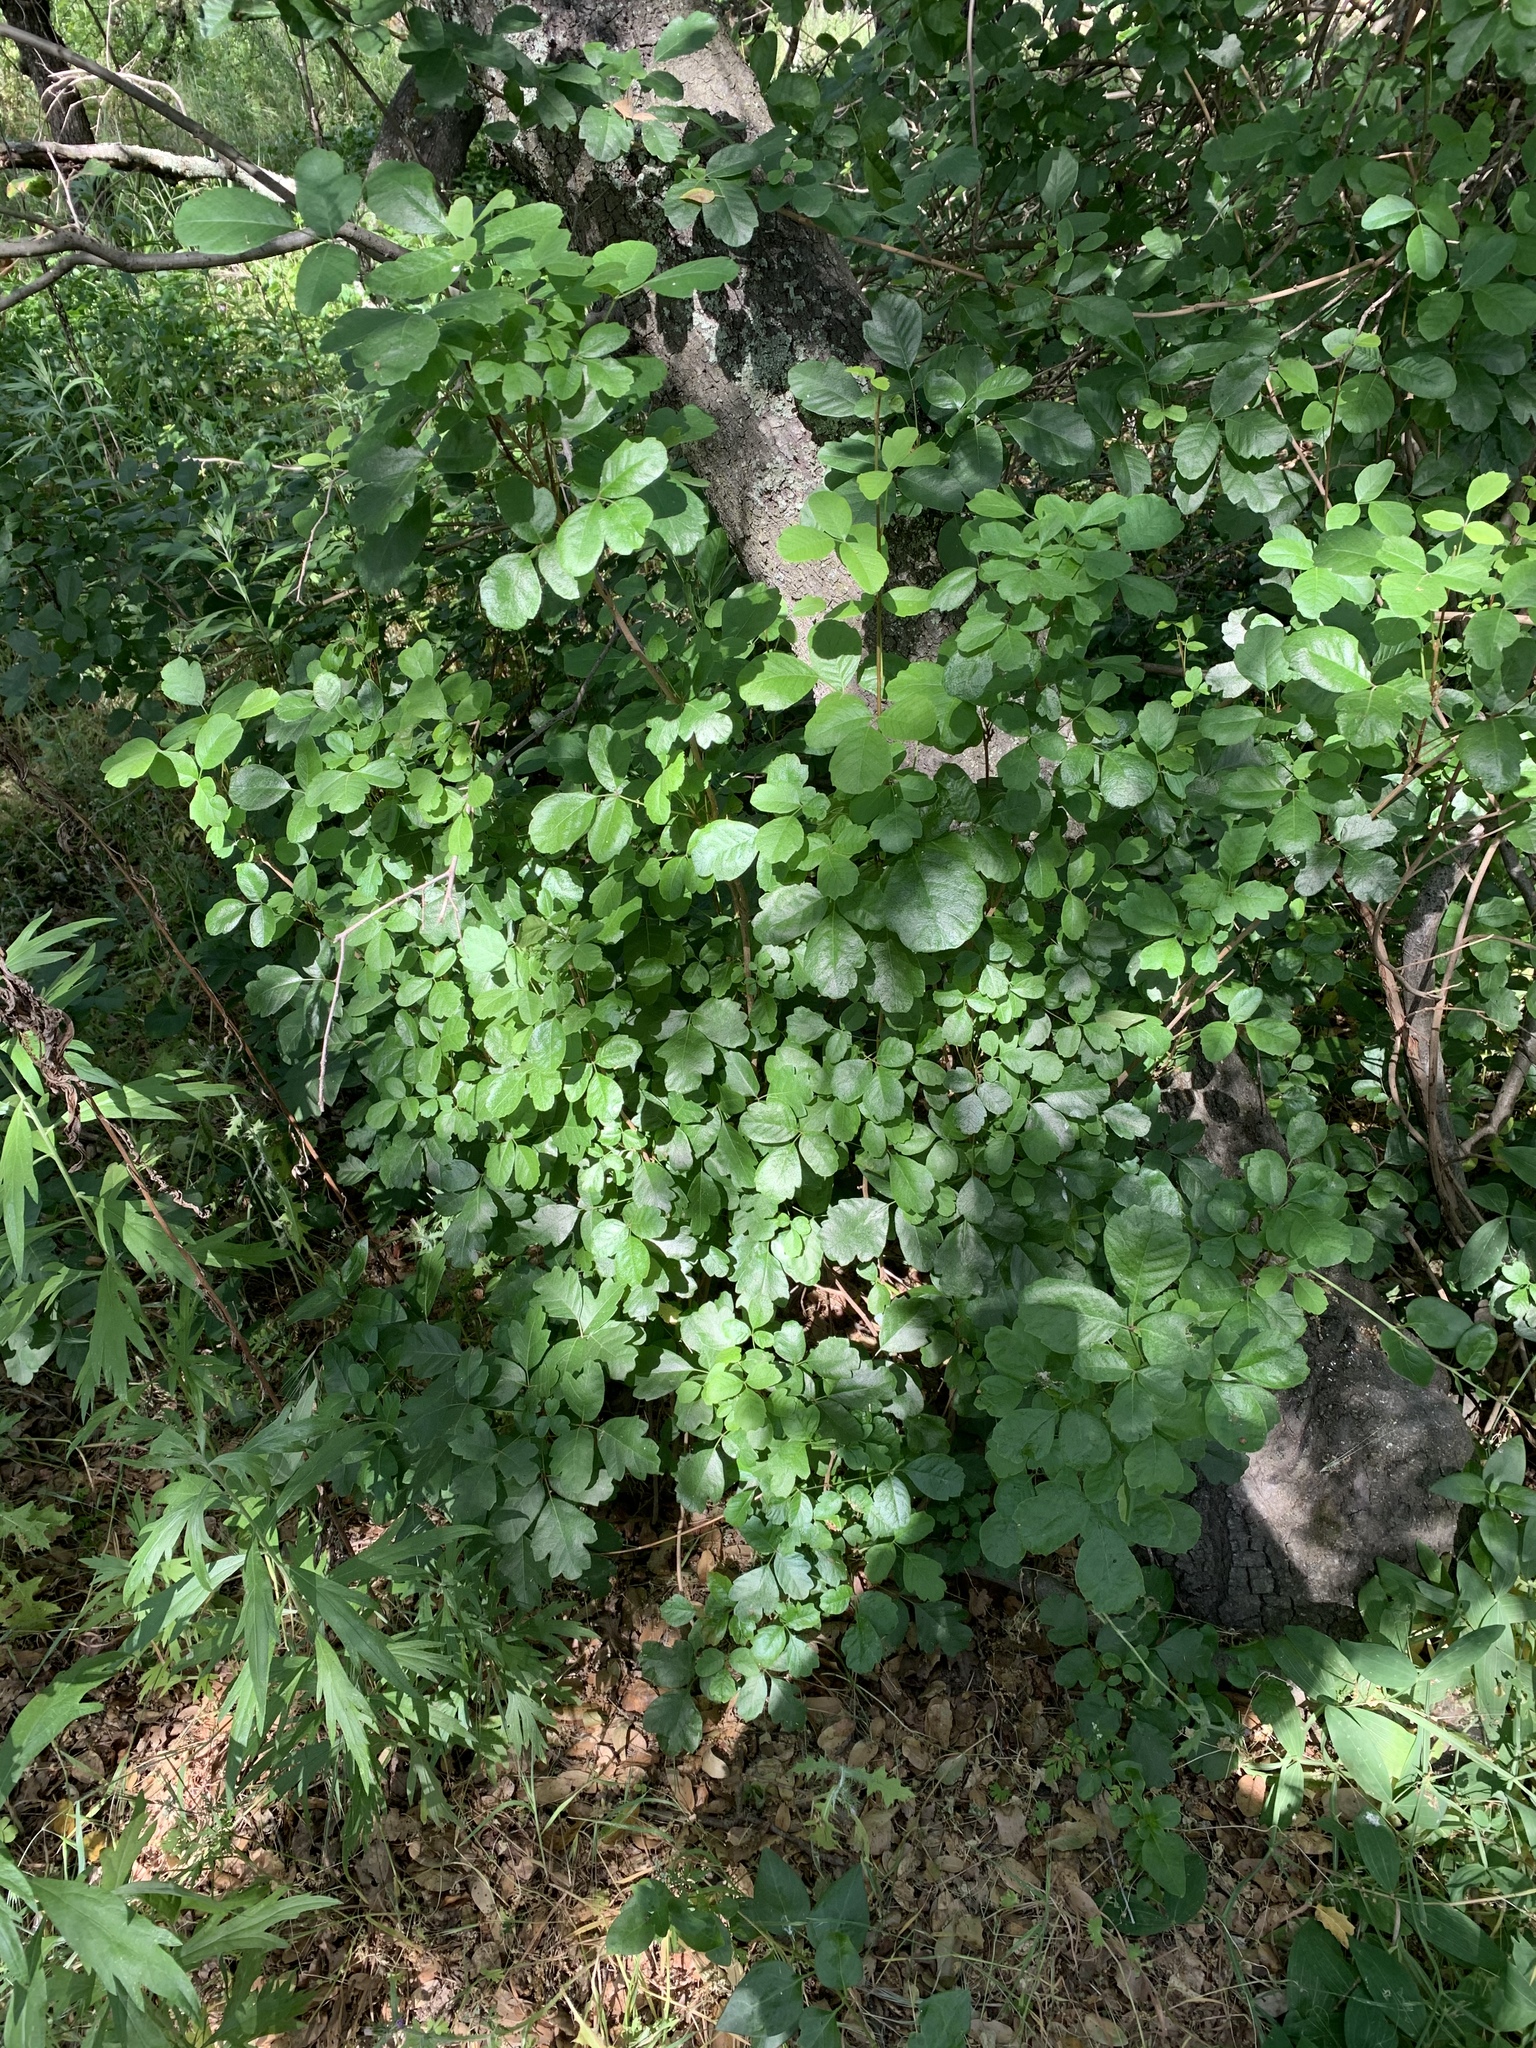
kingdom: Plantae
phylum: Tracheophyta
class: Magnoliopsida
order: Sapindales
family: Anacardiaceae
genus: Toxicodendron
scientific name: Toxicodendron diversilobum
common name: Pacific poison-oak
